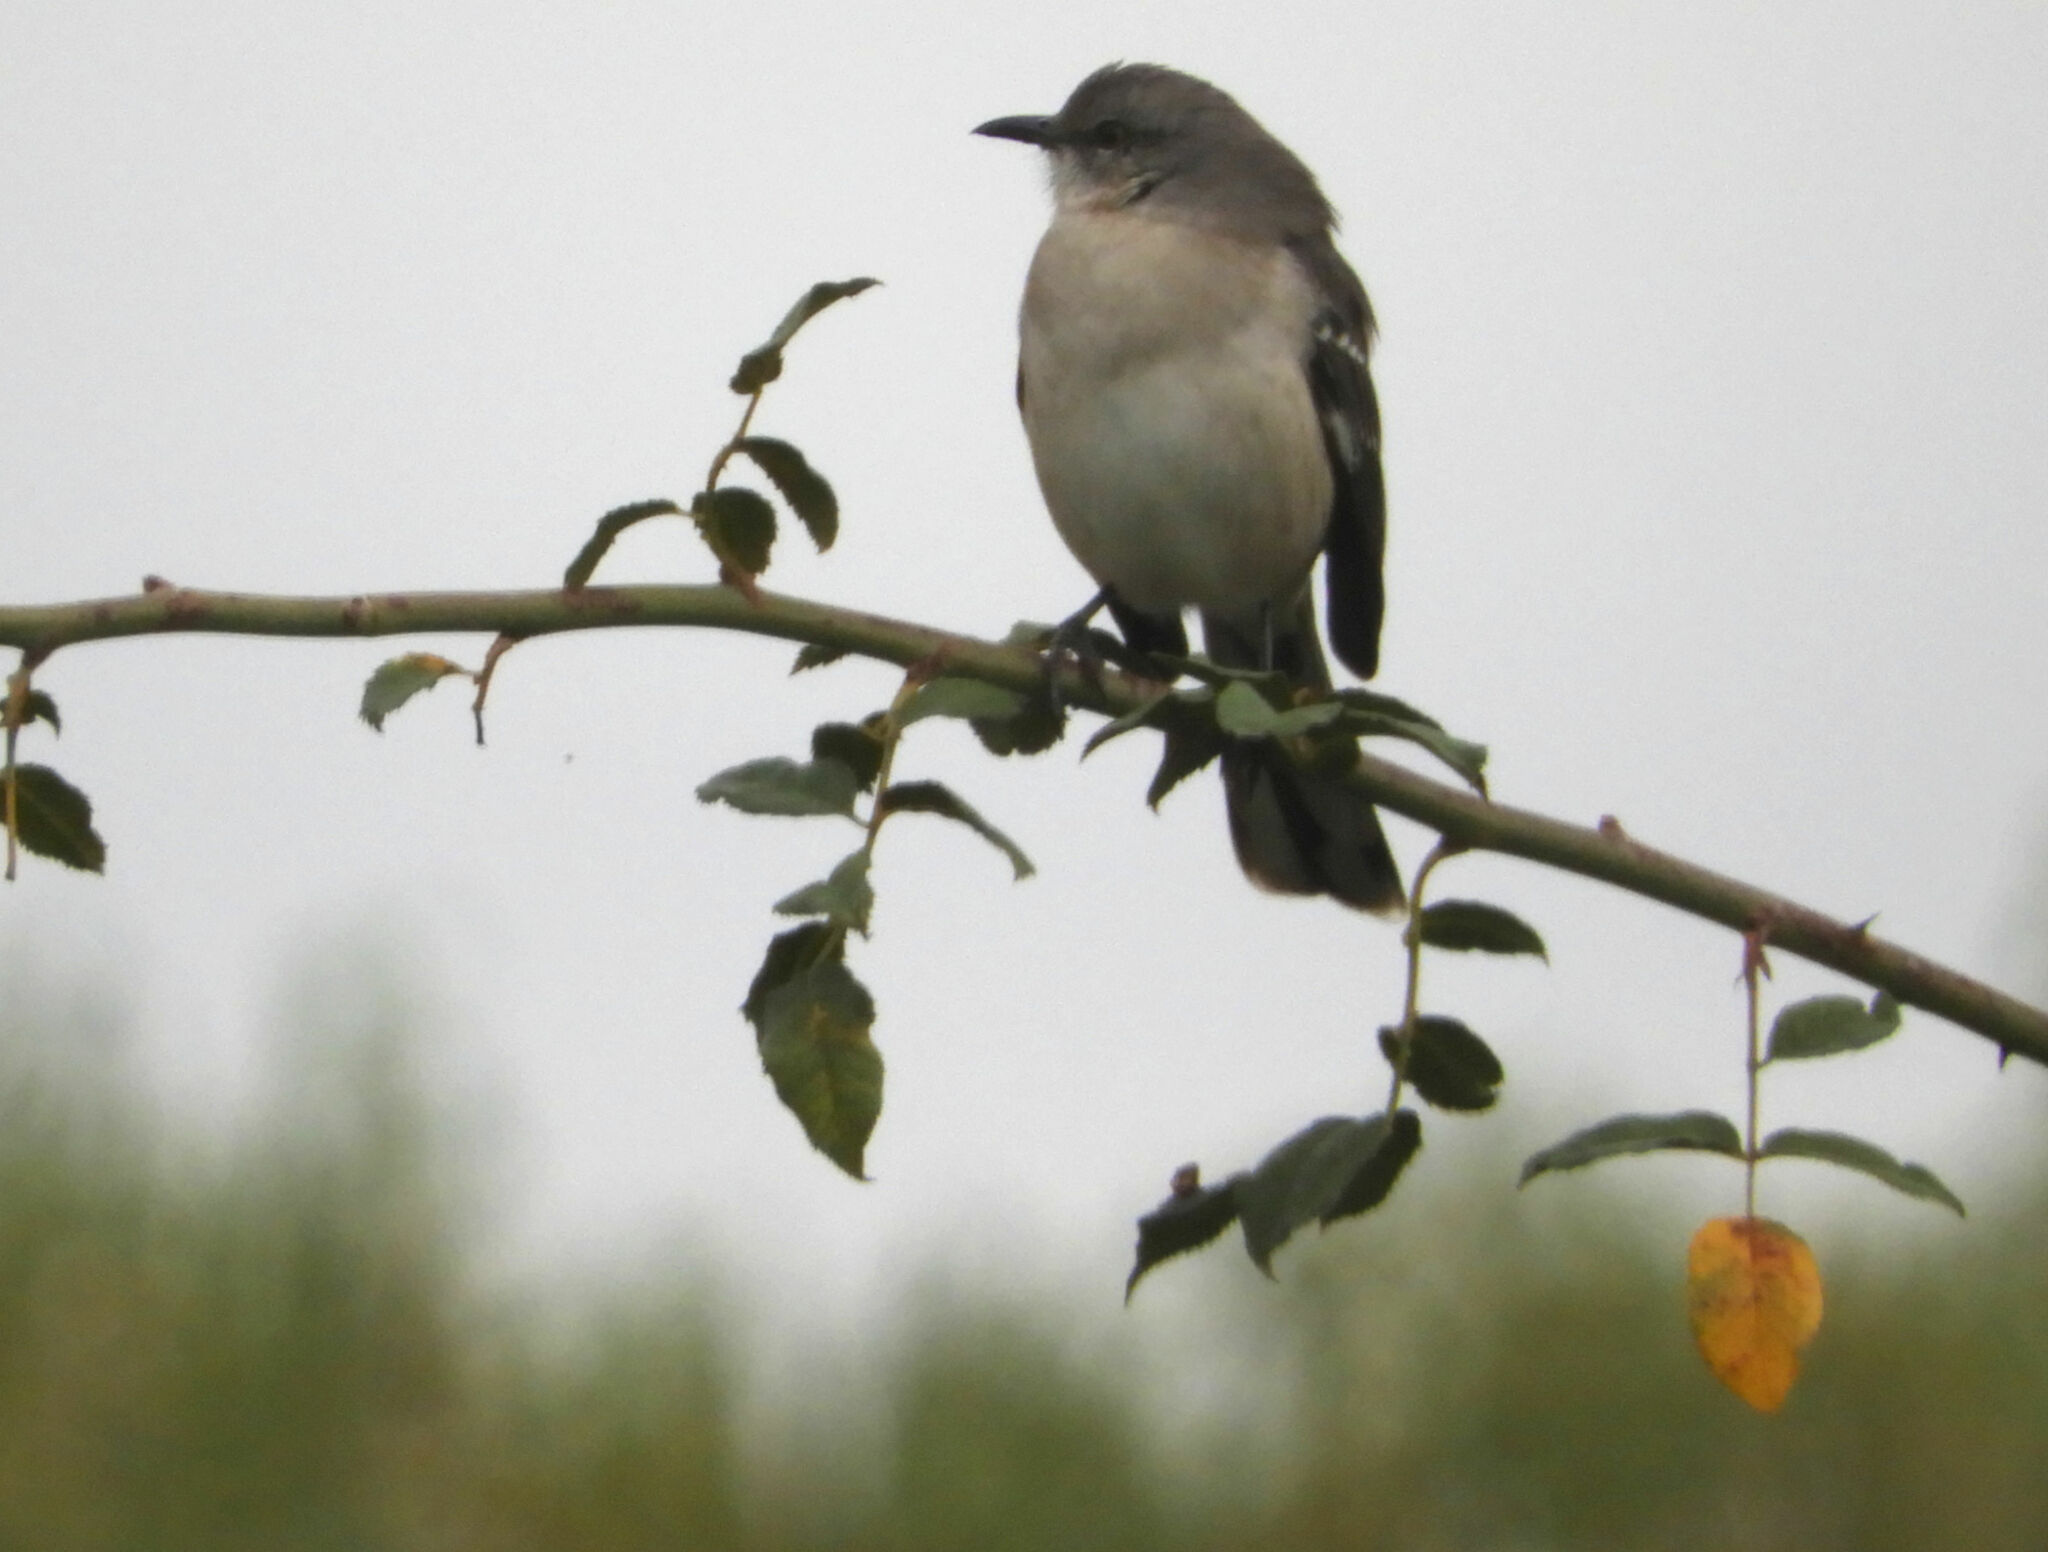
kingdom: Animalia
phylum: Chordata
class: Aves
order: Passeriformes
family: Mimidae
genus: Mimus
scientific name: Mimus polyglottos
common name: Northern mockingbird
